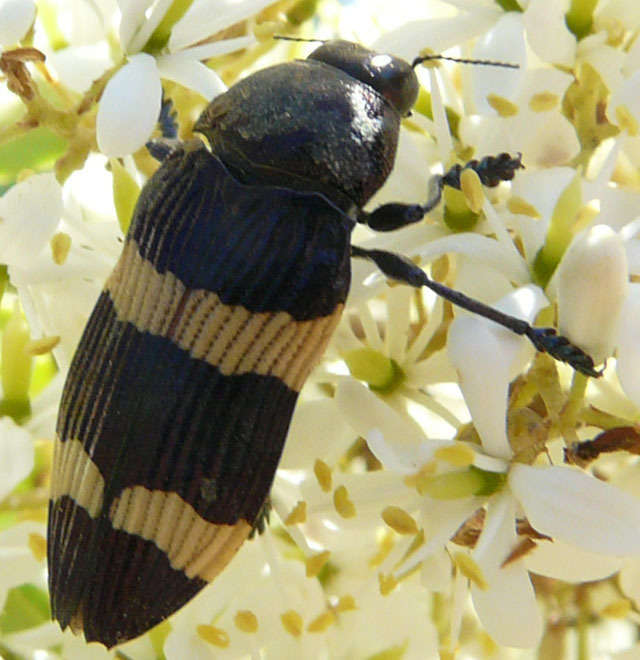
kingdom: Animalia
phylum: Arthropoda
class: Insecta
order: Coleoptera
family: Buprestidae
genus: Castiarina
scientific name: Castiarina bifasciata
